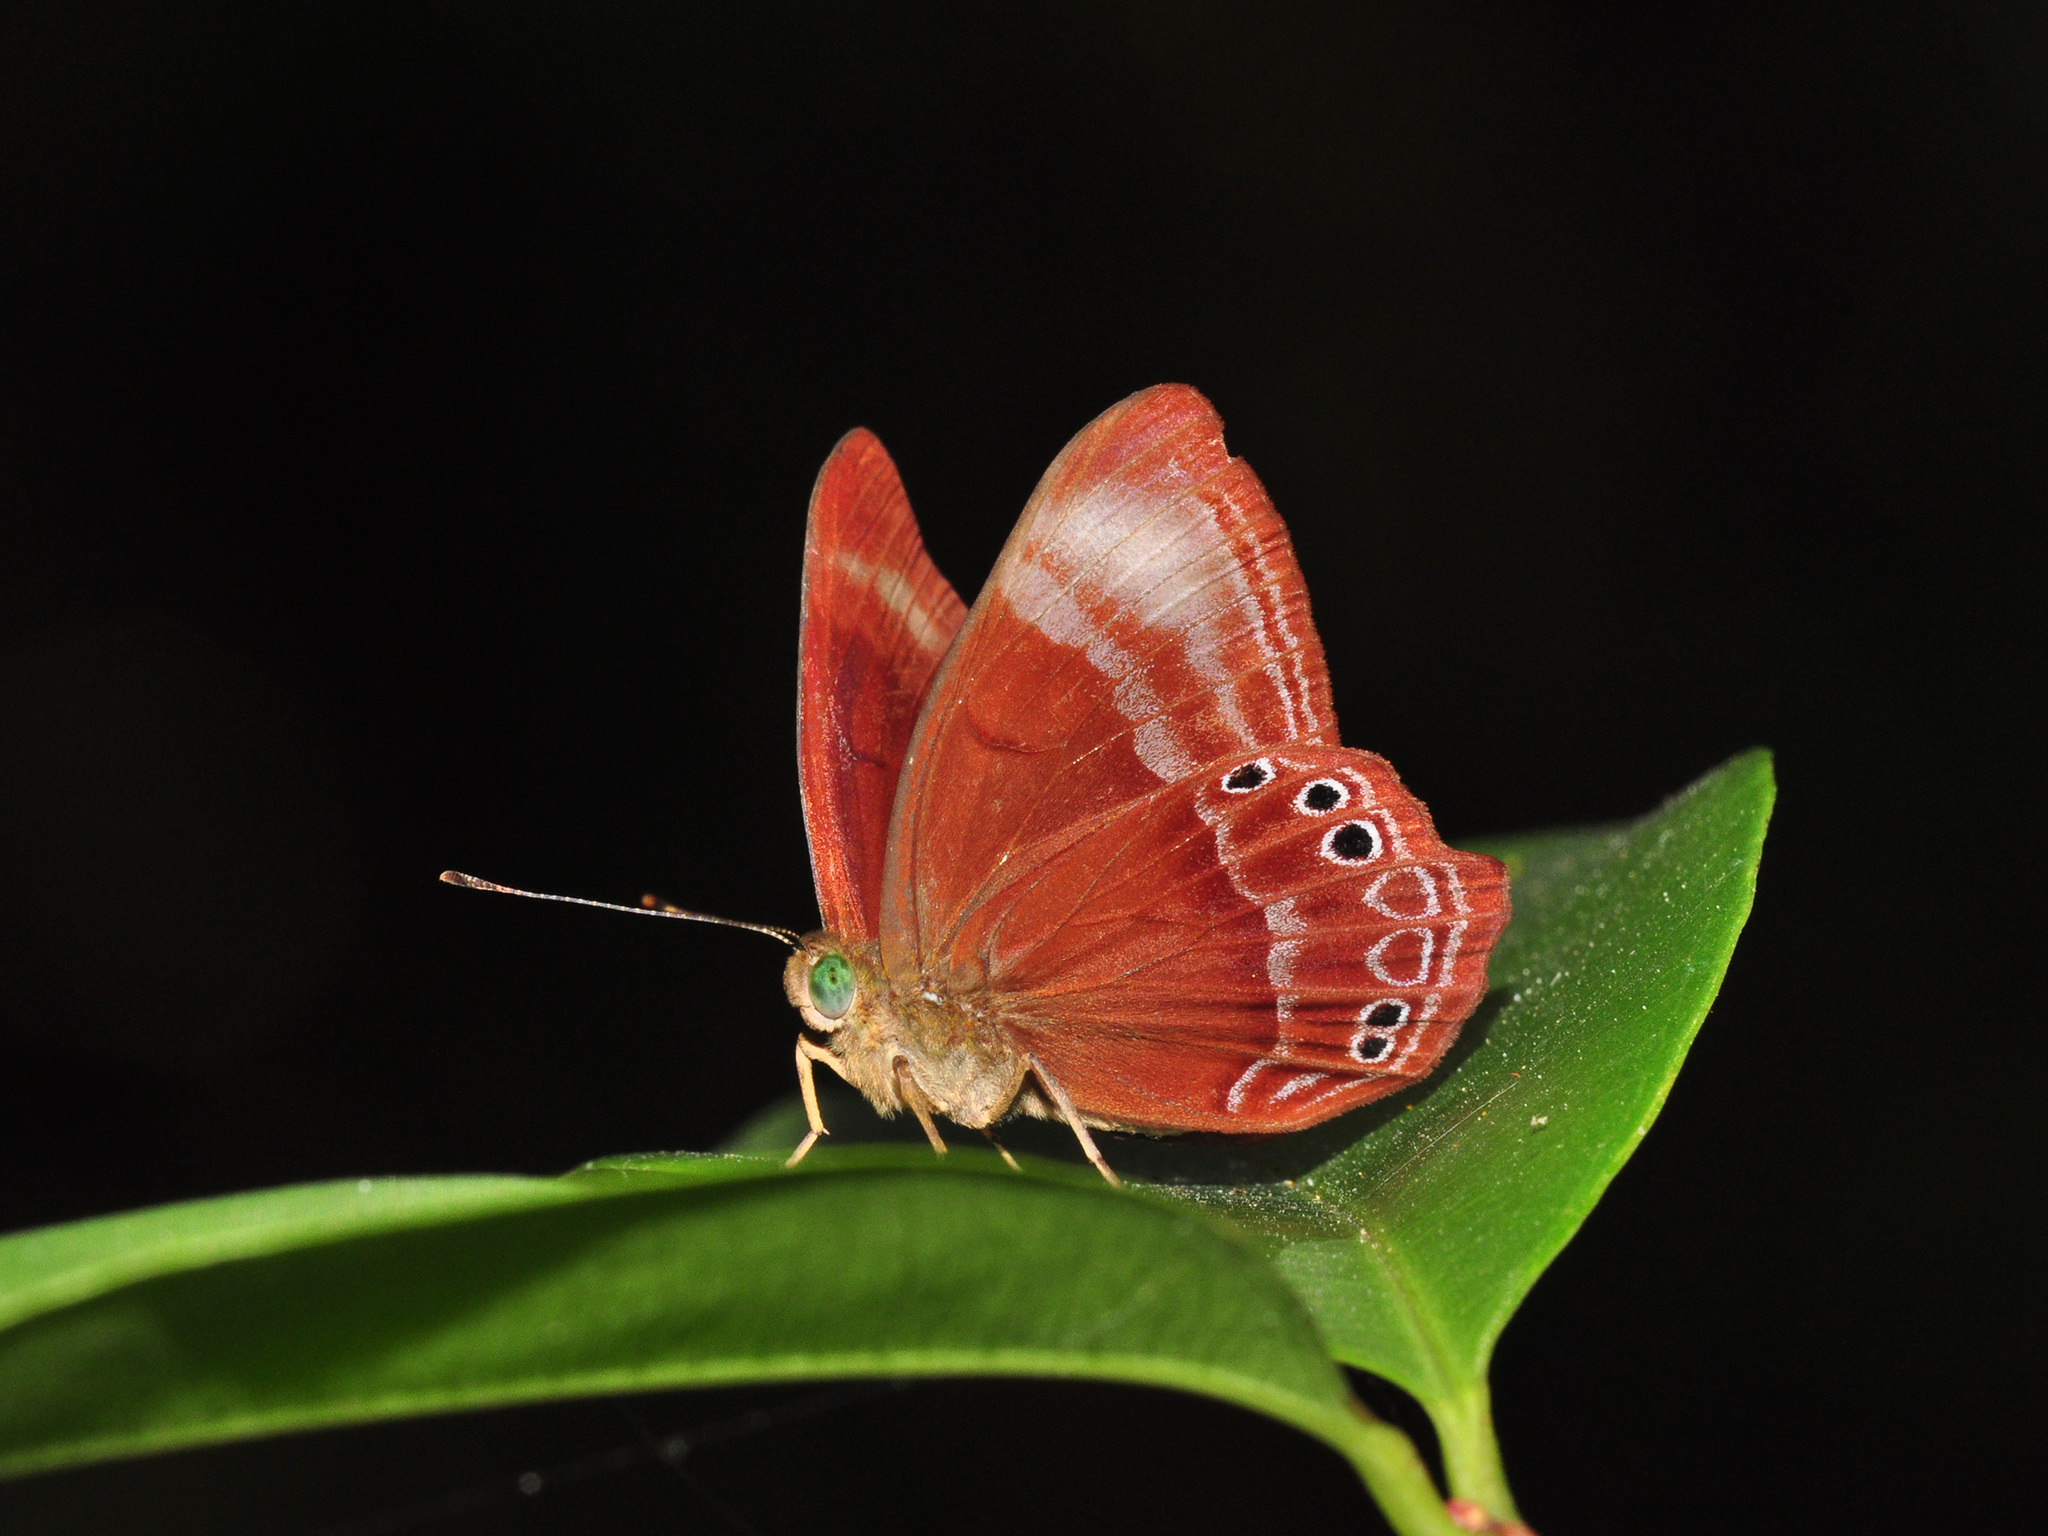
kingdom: Animalia
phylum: Arthropoda
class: Insecta
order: Lepidoptera
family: Lycaenidae
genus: Abisara
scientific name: Abisara geza
